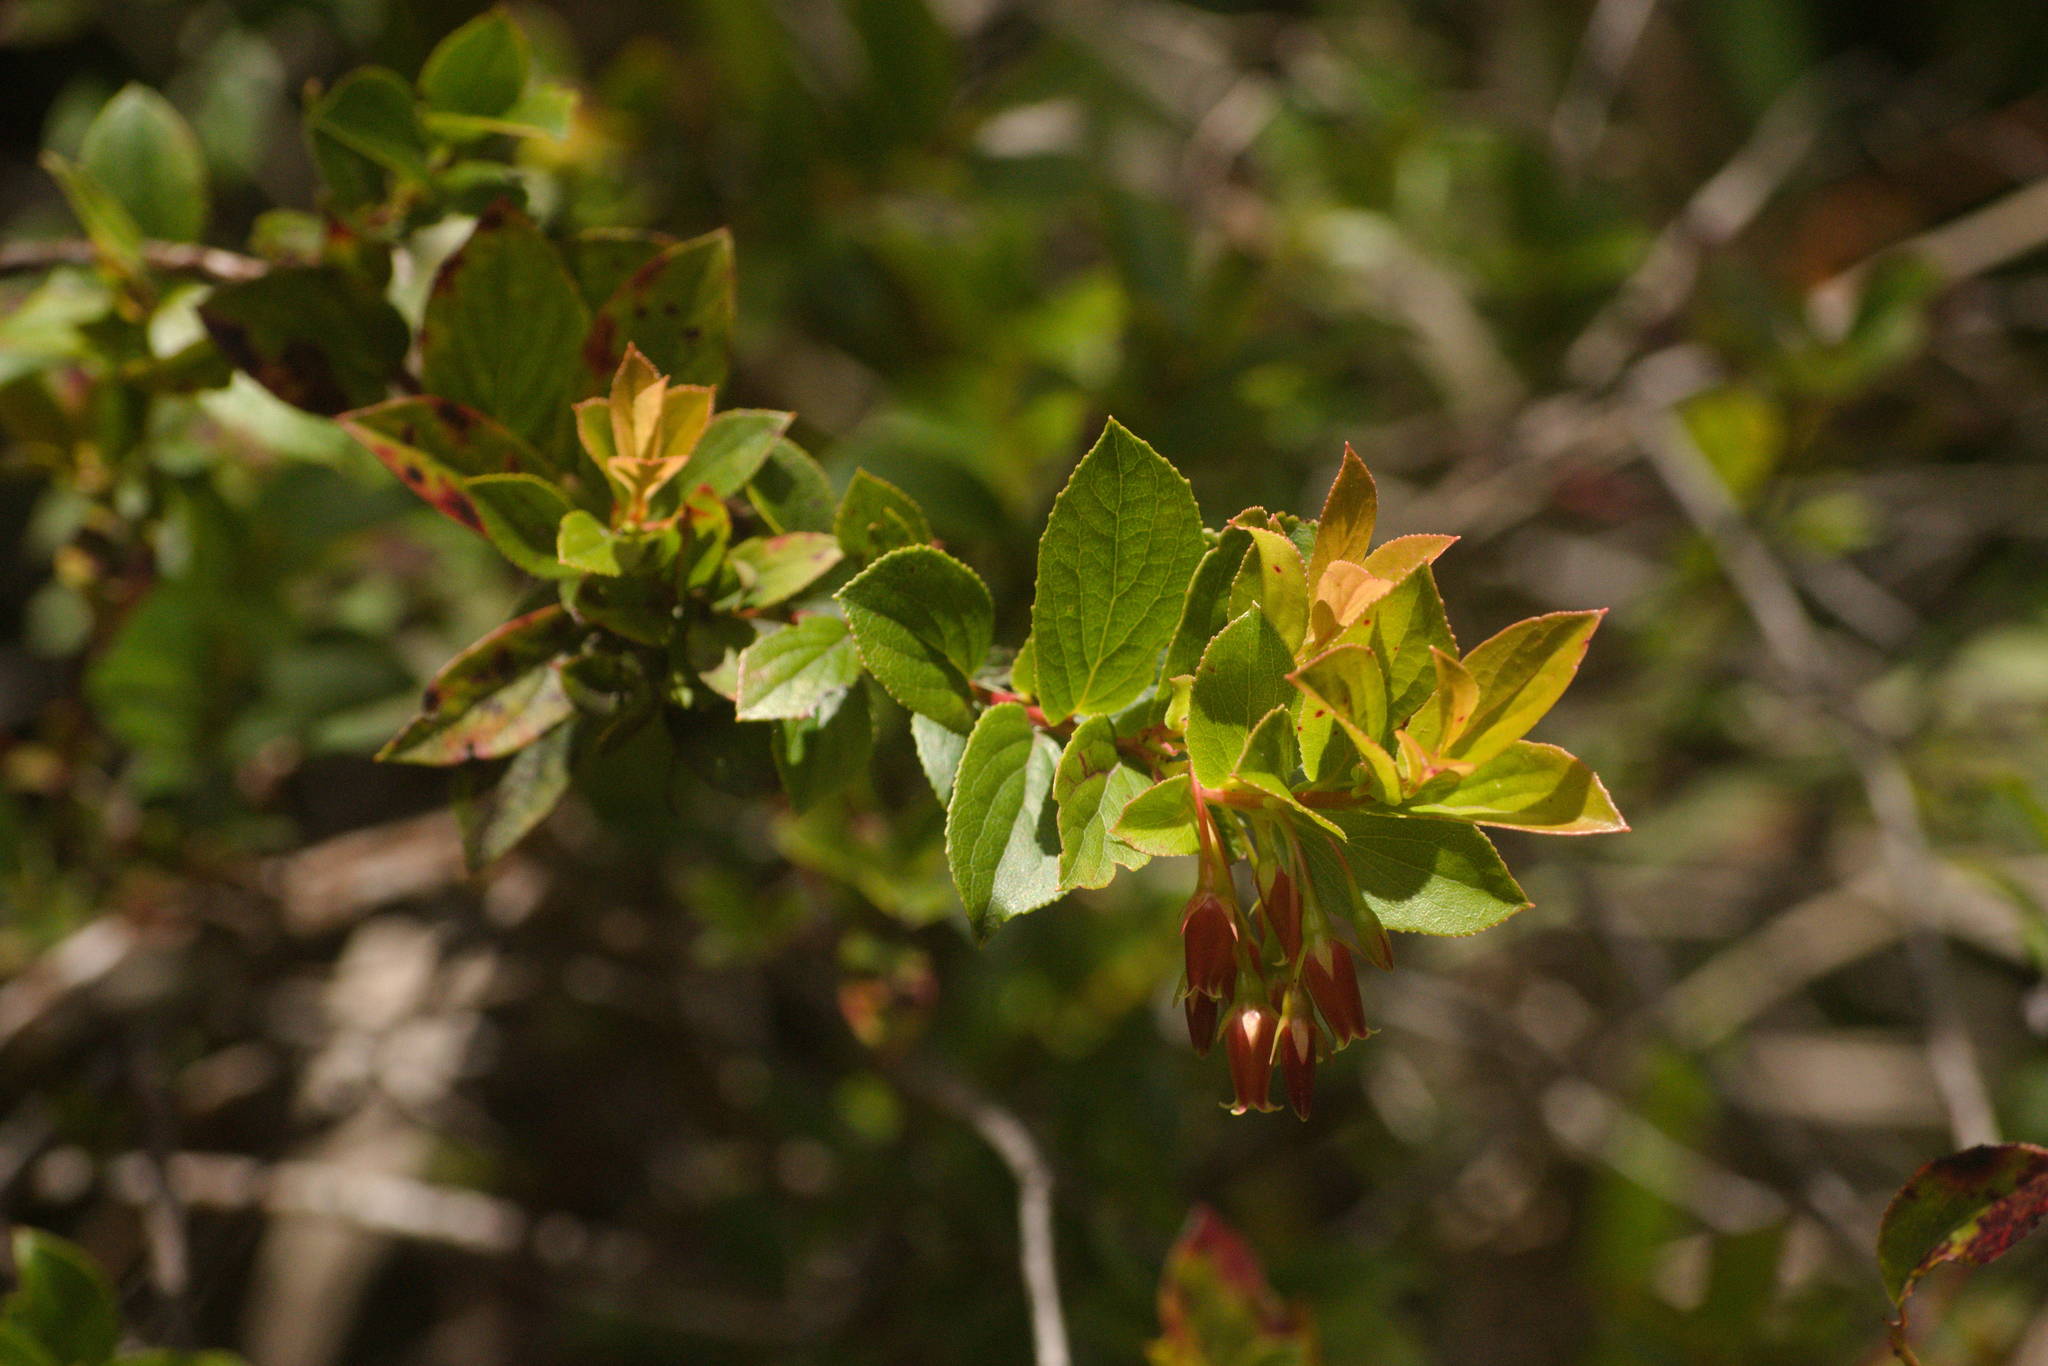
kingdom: Plantae
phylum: Tracheophyta
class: Magnoliopsida
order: Ericales
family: Ericaceae
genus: Vaccinium
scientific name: Vaccinium dentatum
